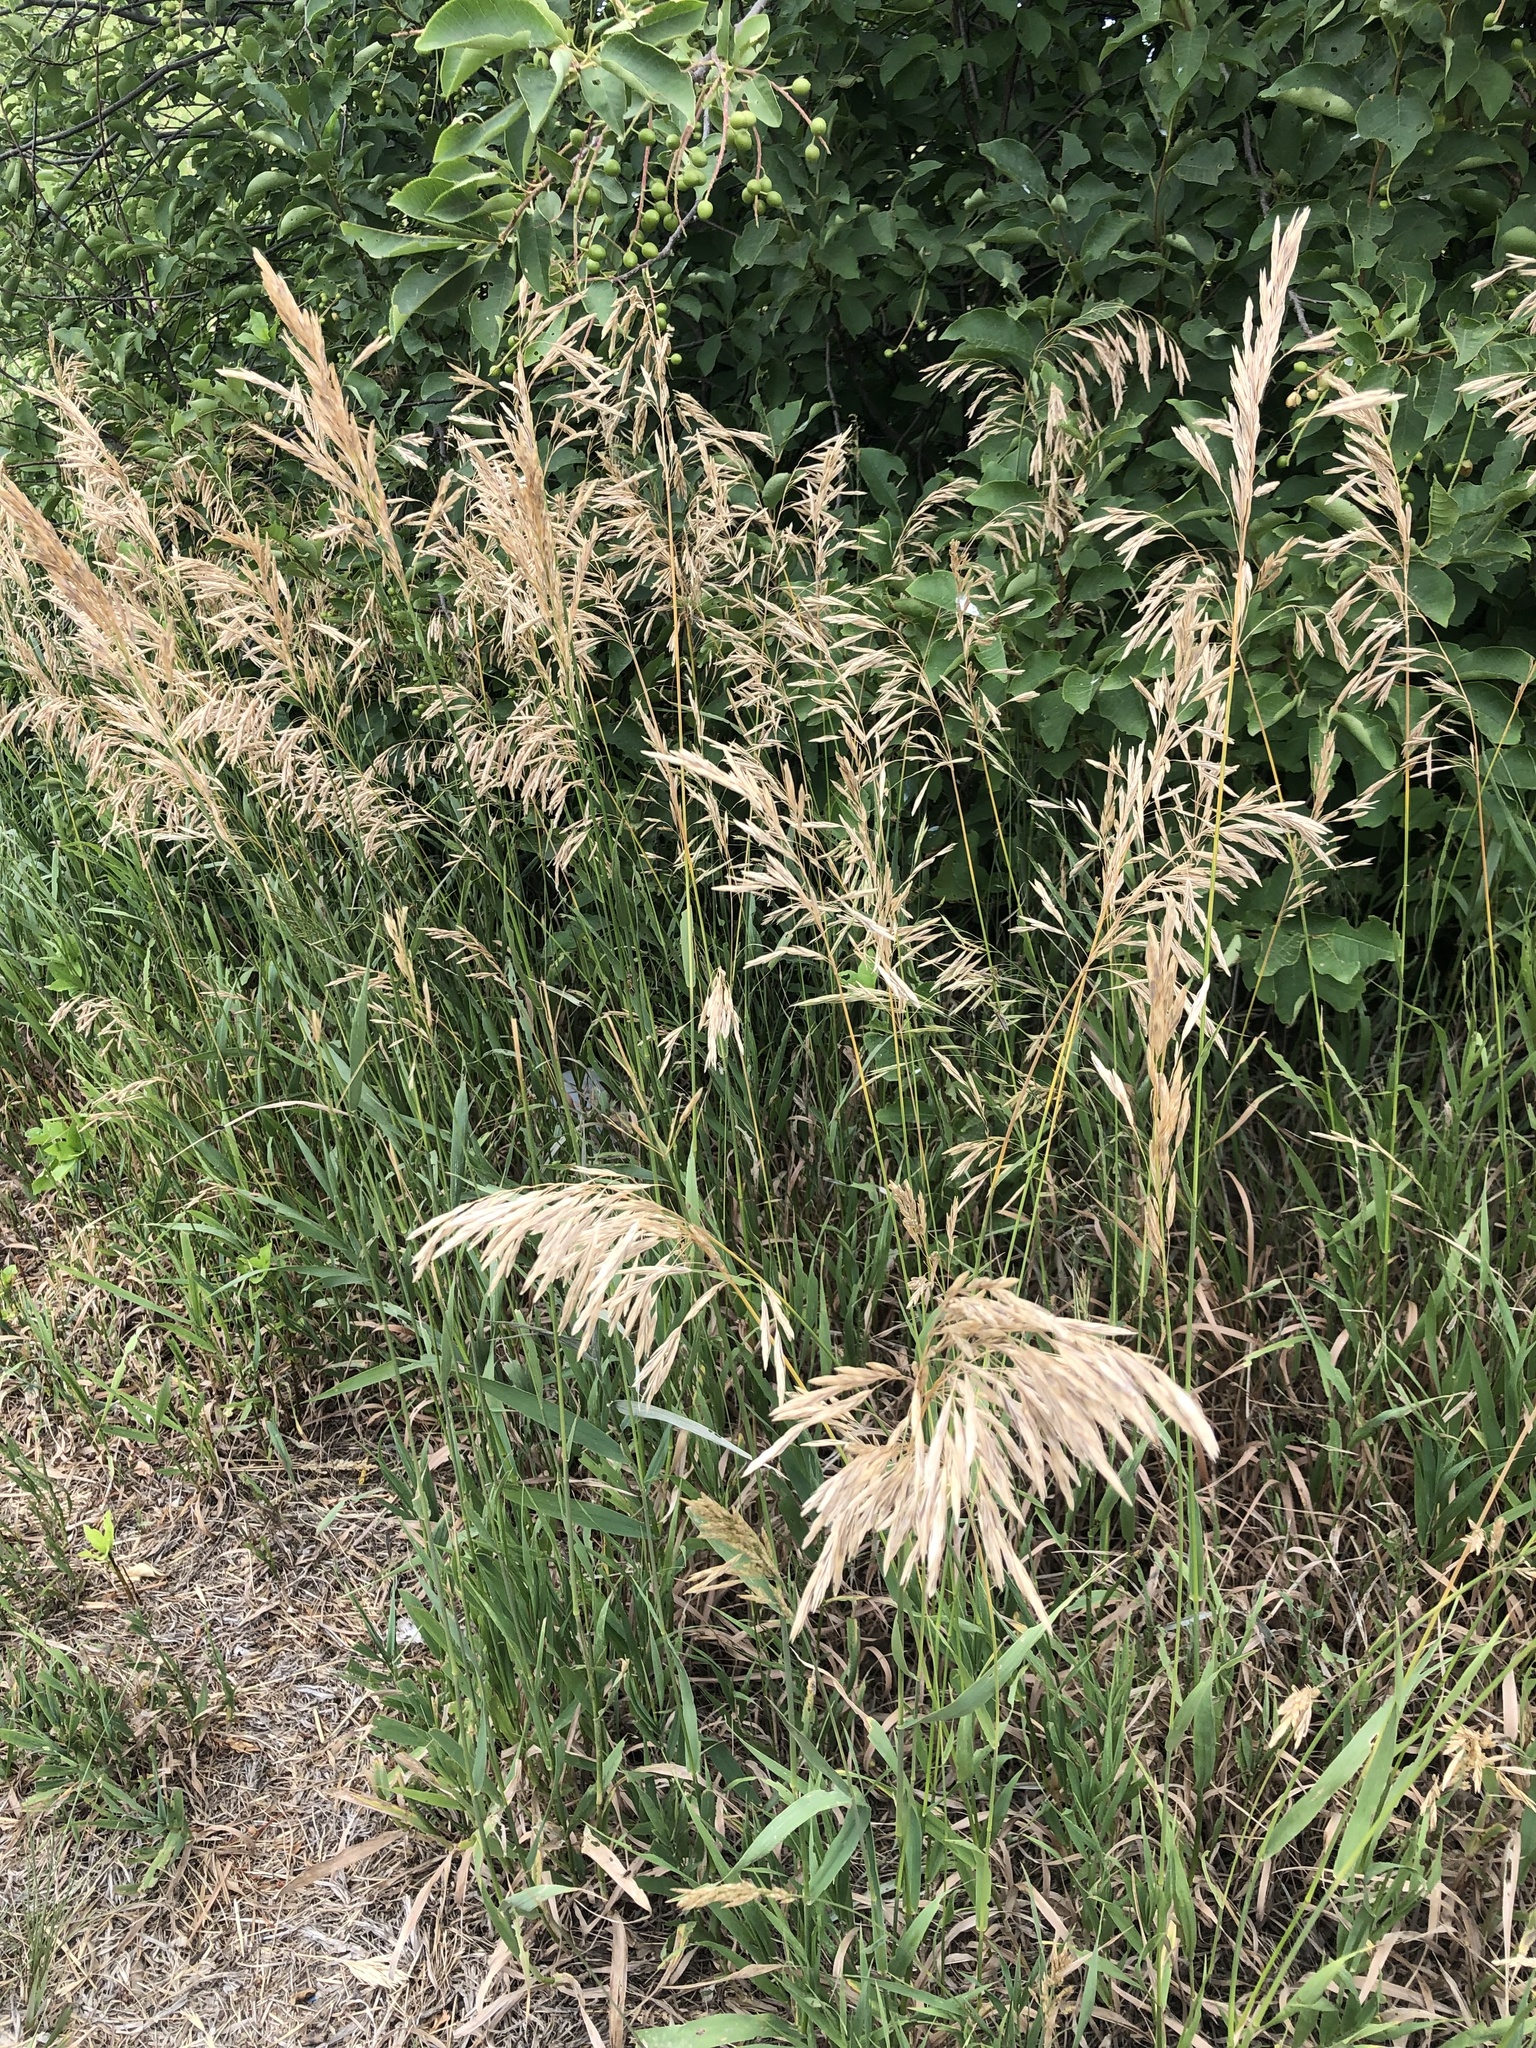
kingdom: Plantae
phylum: Tracheophyta
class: Liliopsida
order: Poales
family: Poaceae
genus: Bromus
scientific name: Bromus inermis
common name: Smooth brome
